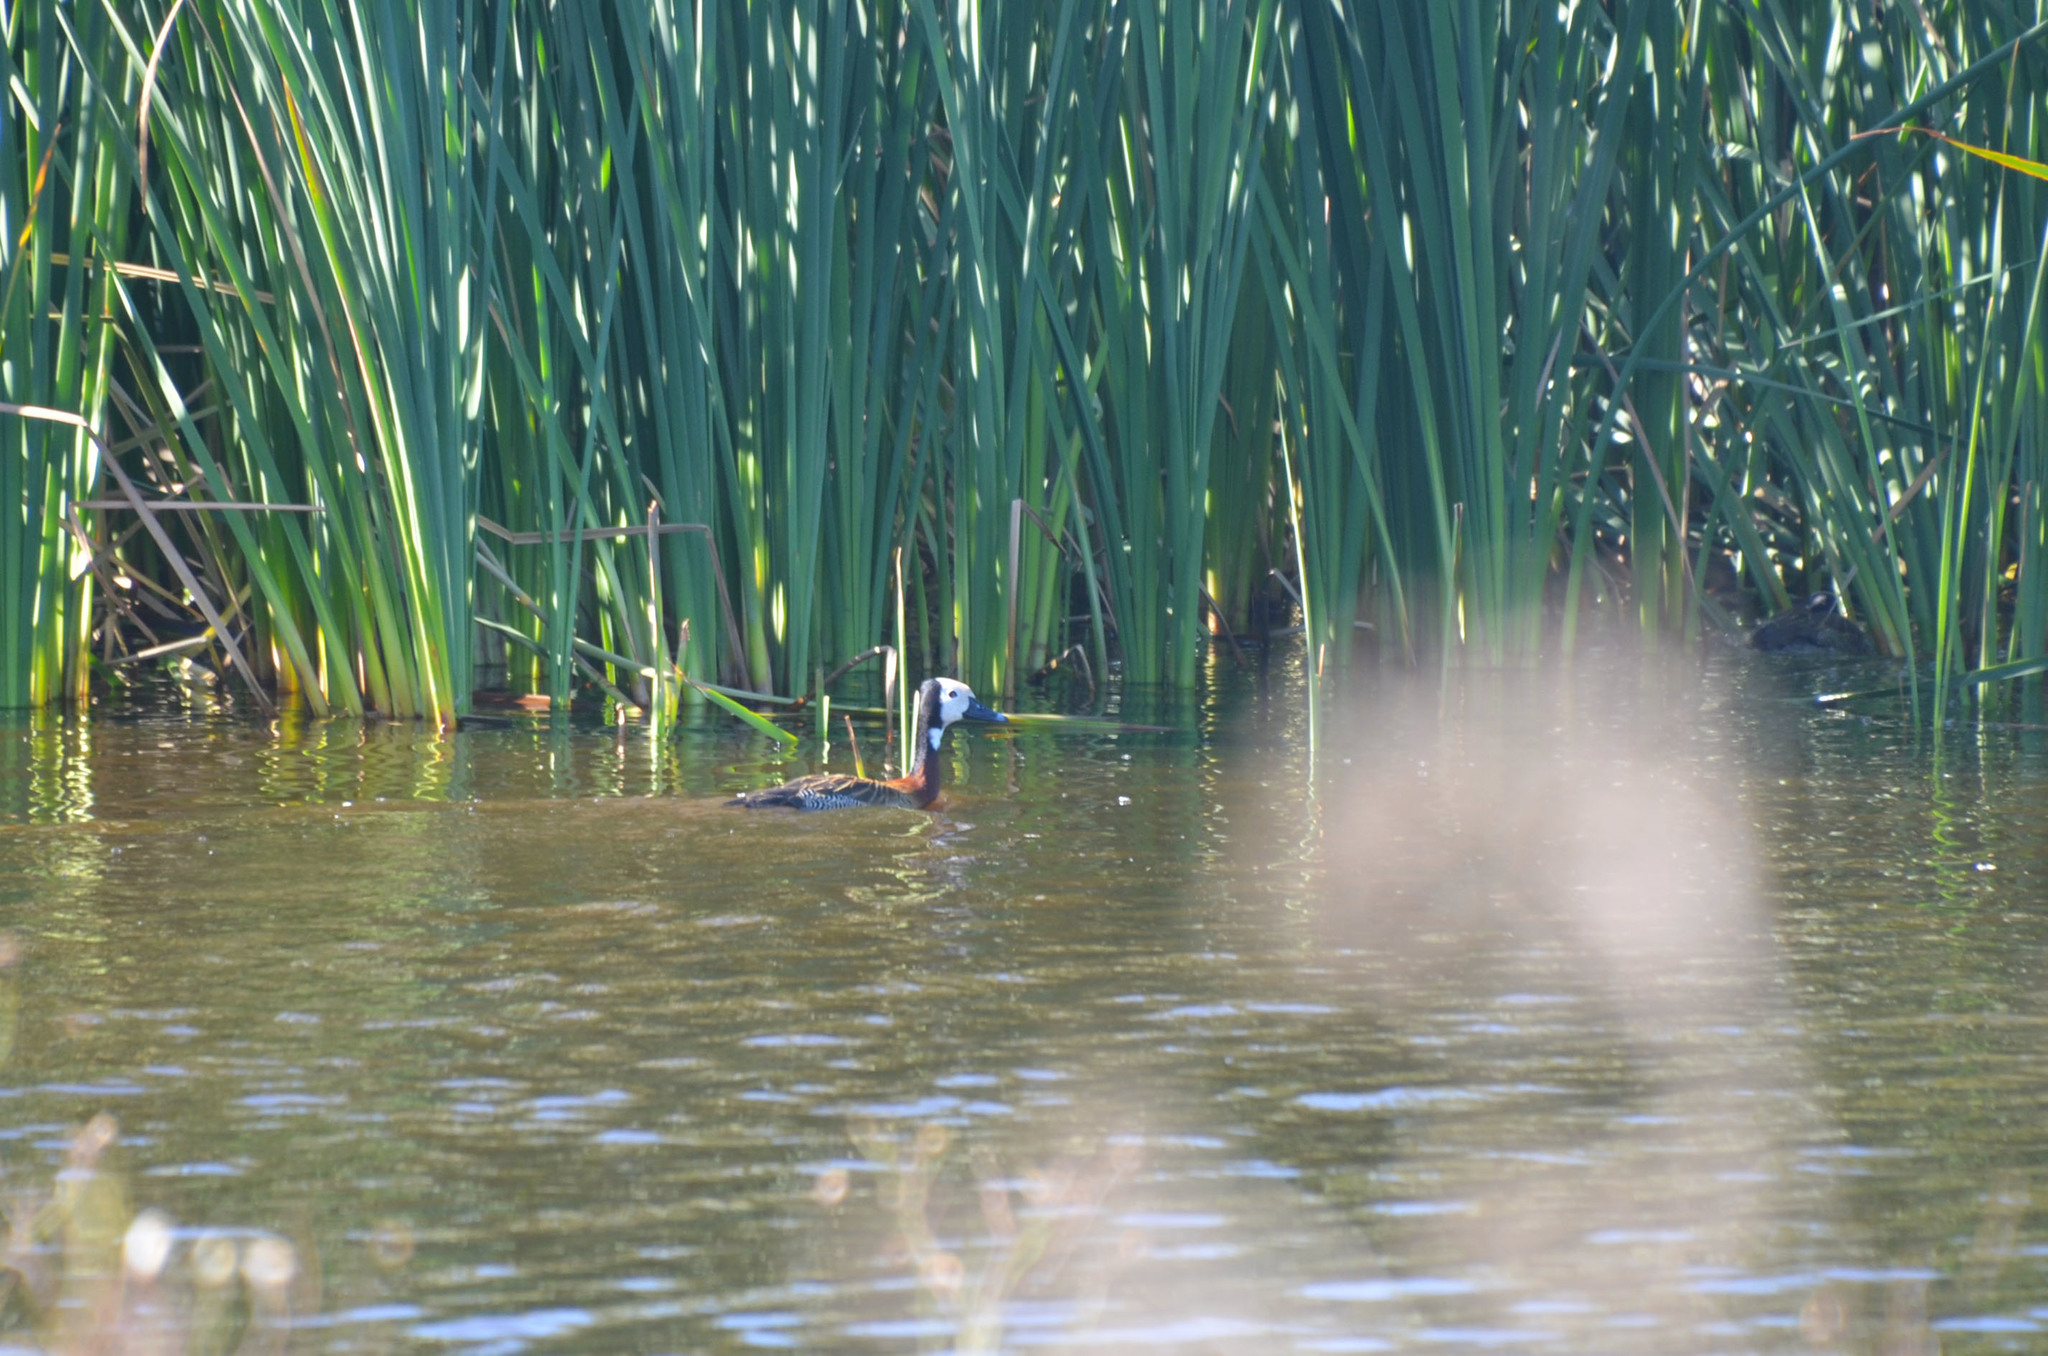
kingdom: Animalia
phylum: Chordata
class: Aves
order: Anseriformes
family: Anatidae
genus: Dendrocygna
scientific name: Dendrocygna viduata
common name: White-faced whistling duck
